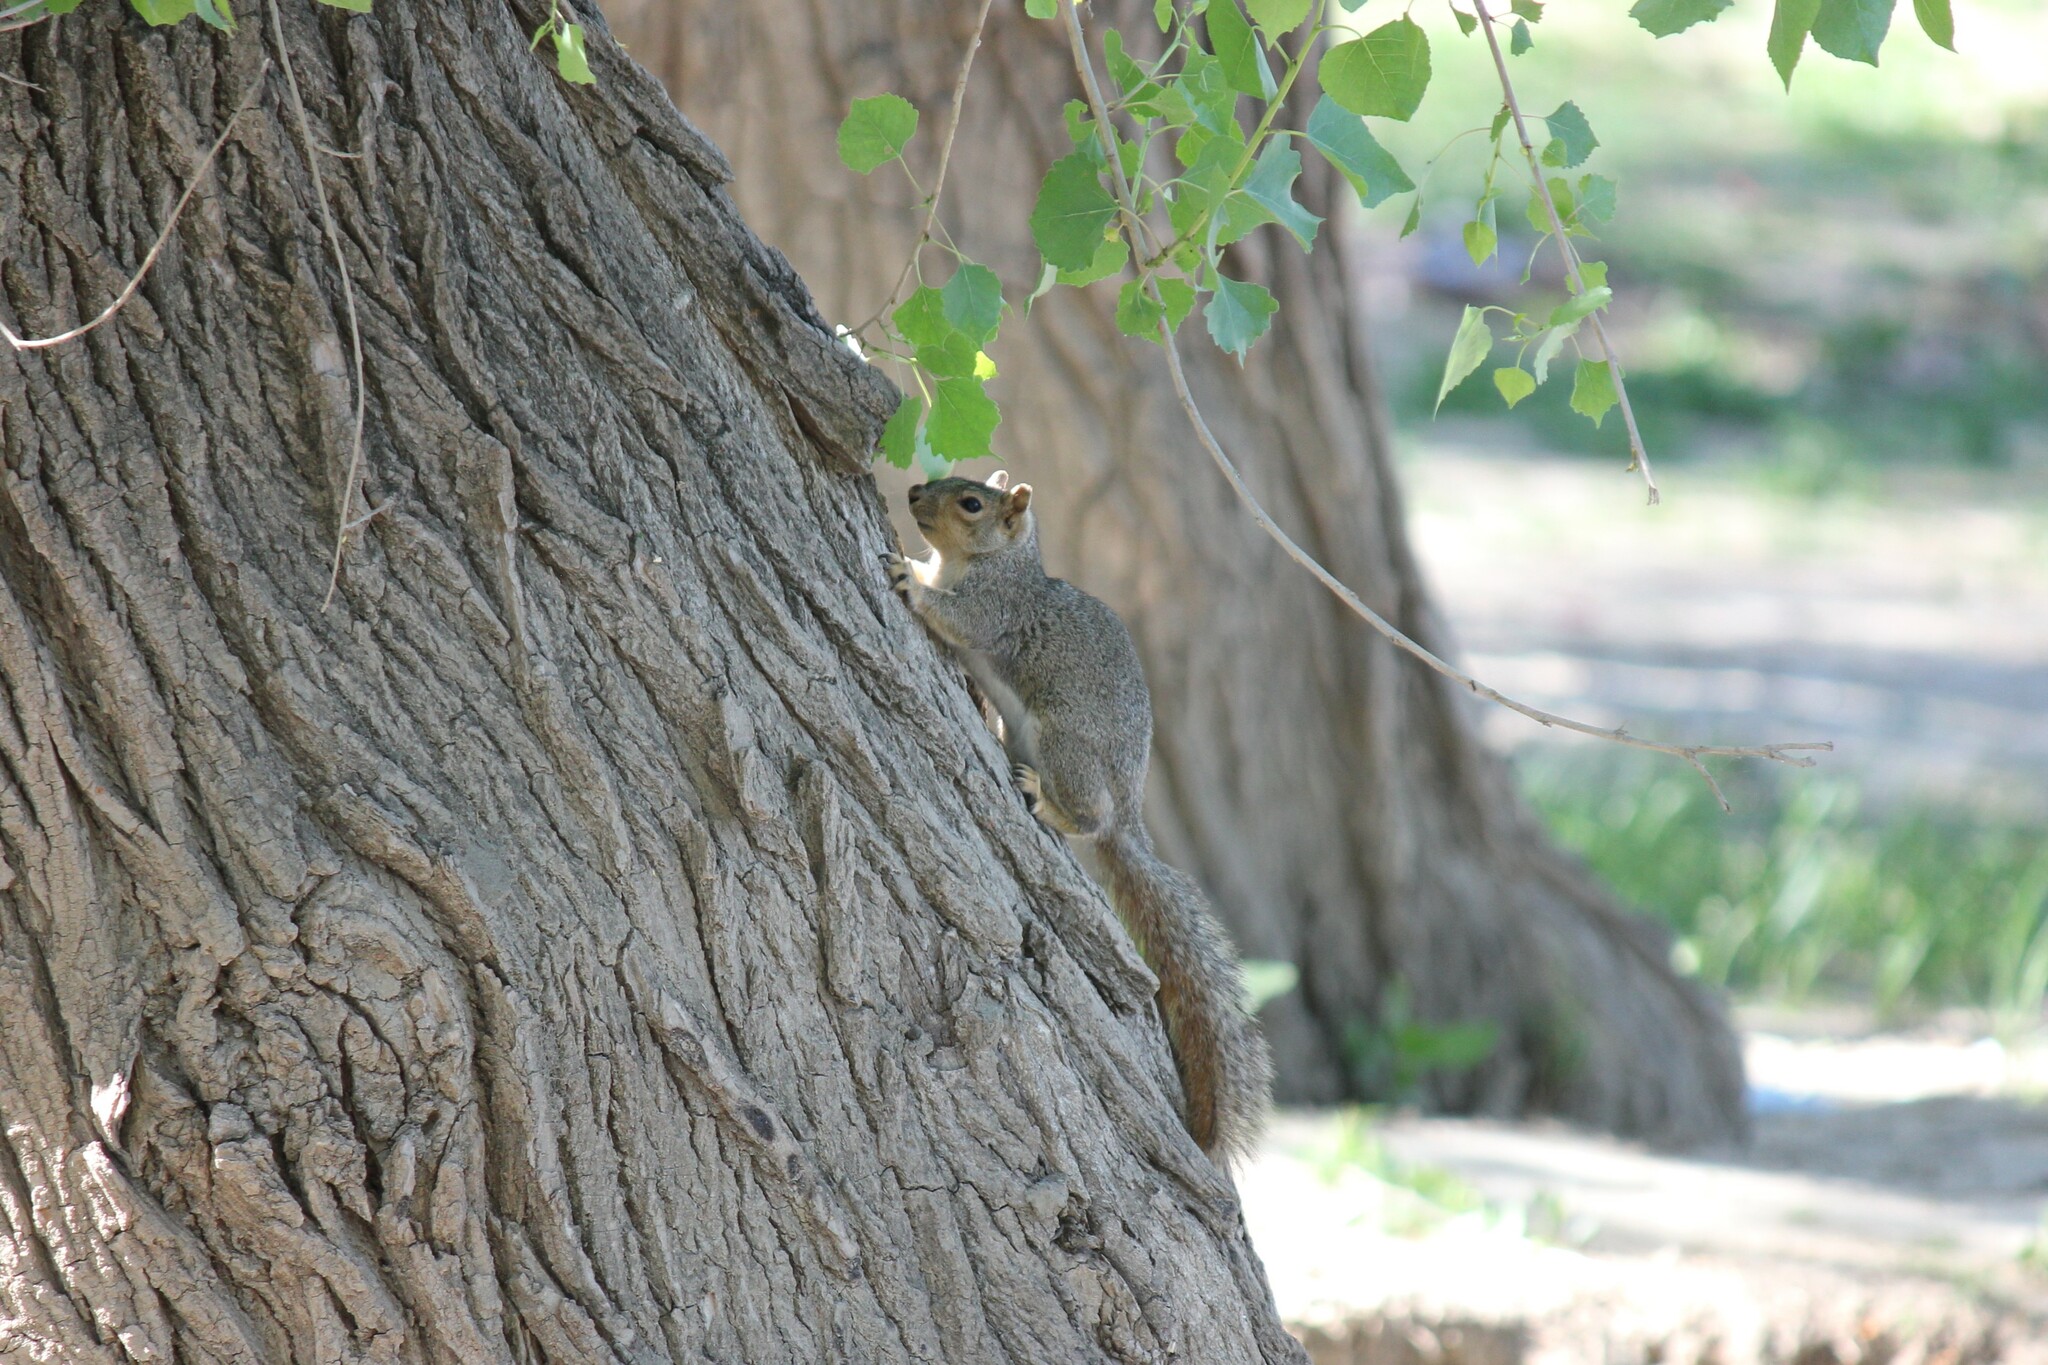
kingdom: Animalia
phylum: Chordata
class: Mammalia
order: Rodentia
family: Sciuridae
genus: Sciurus
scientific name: Sciurus niger
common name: Fox squirrel
